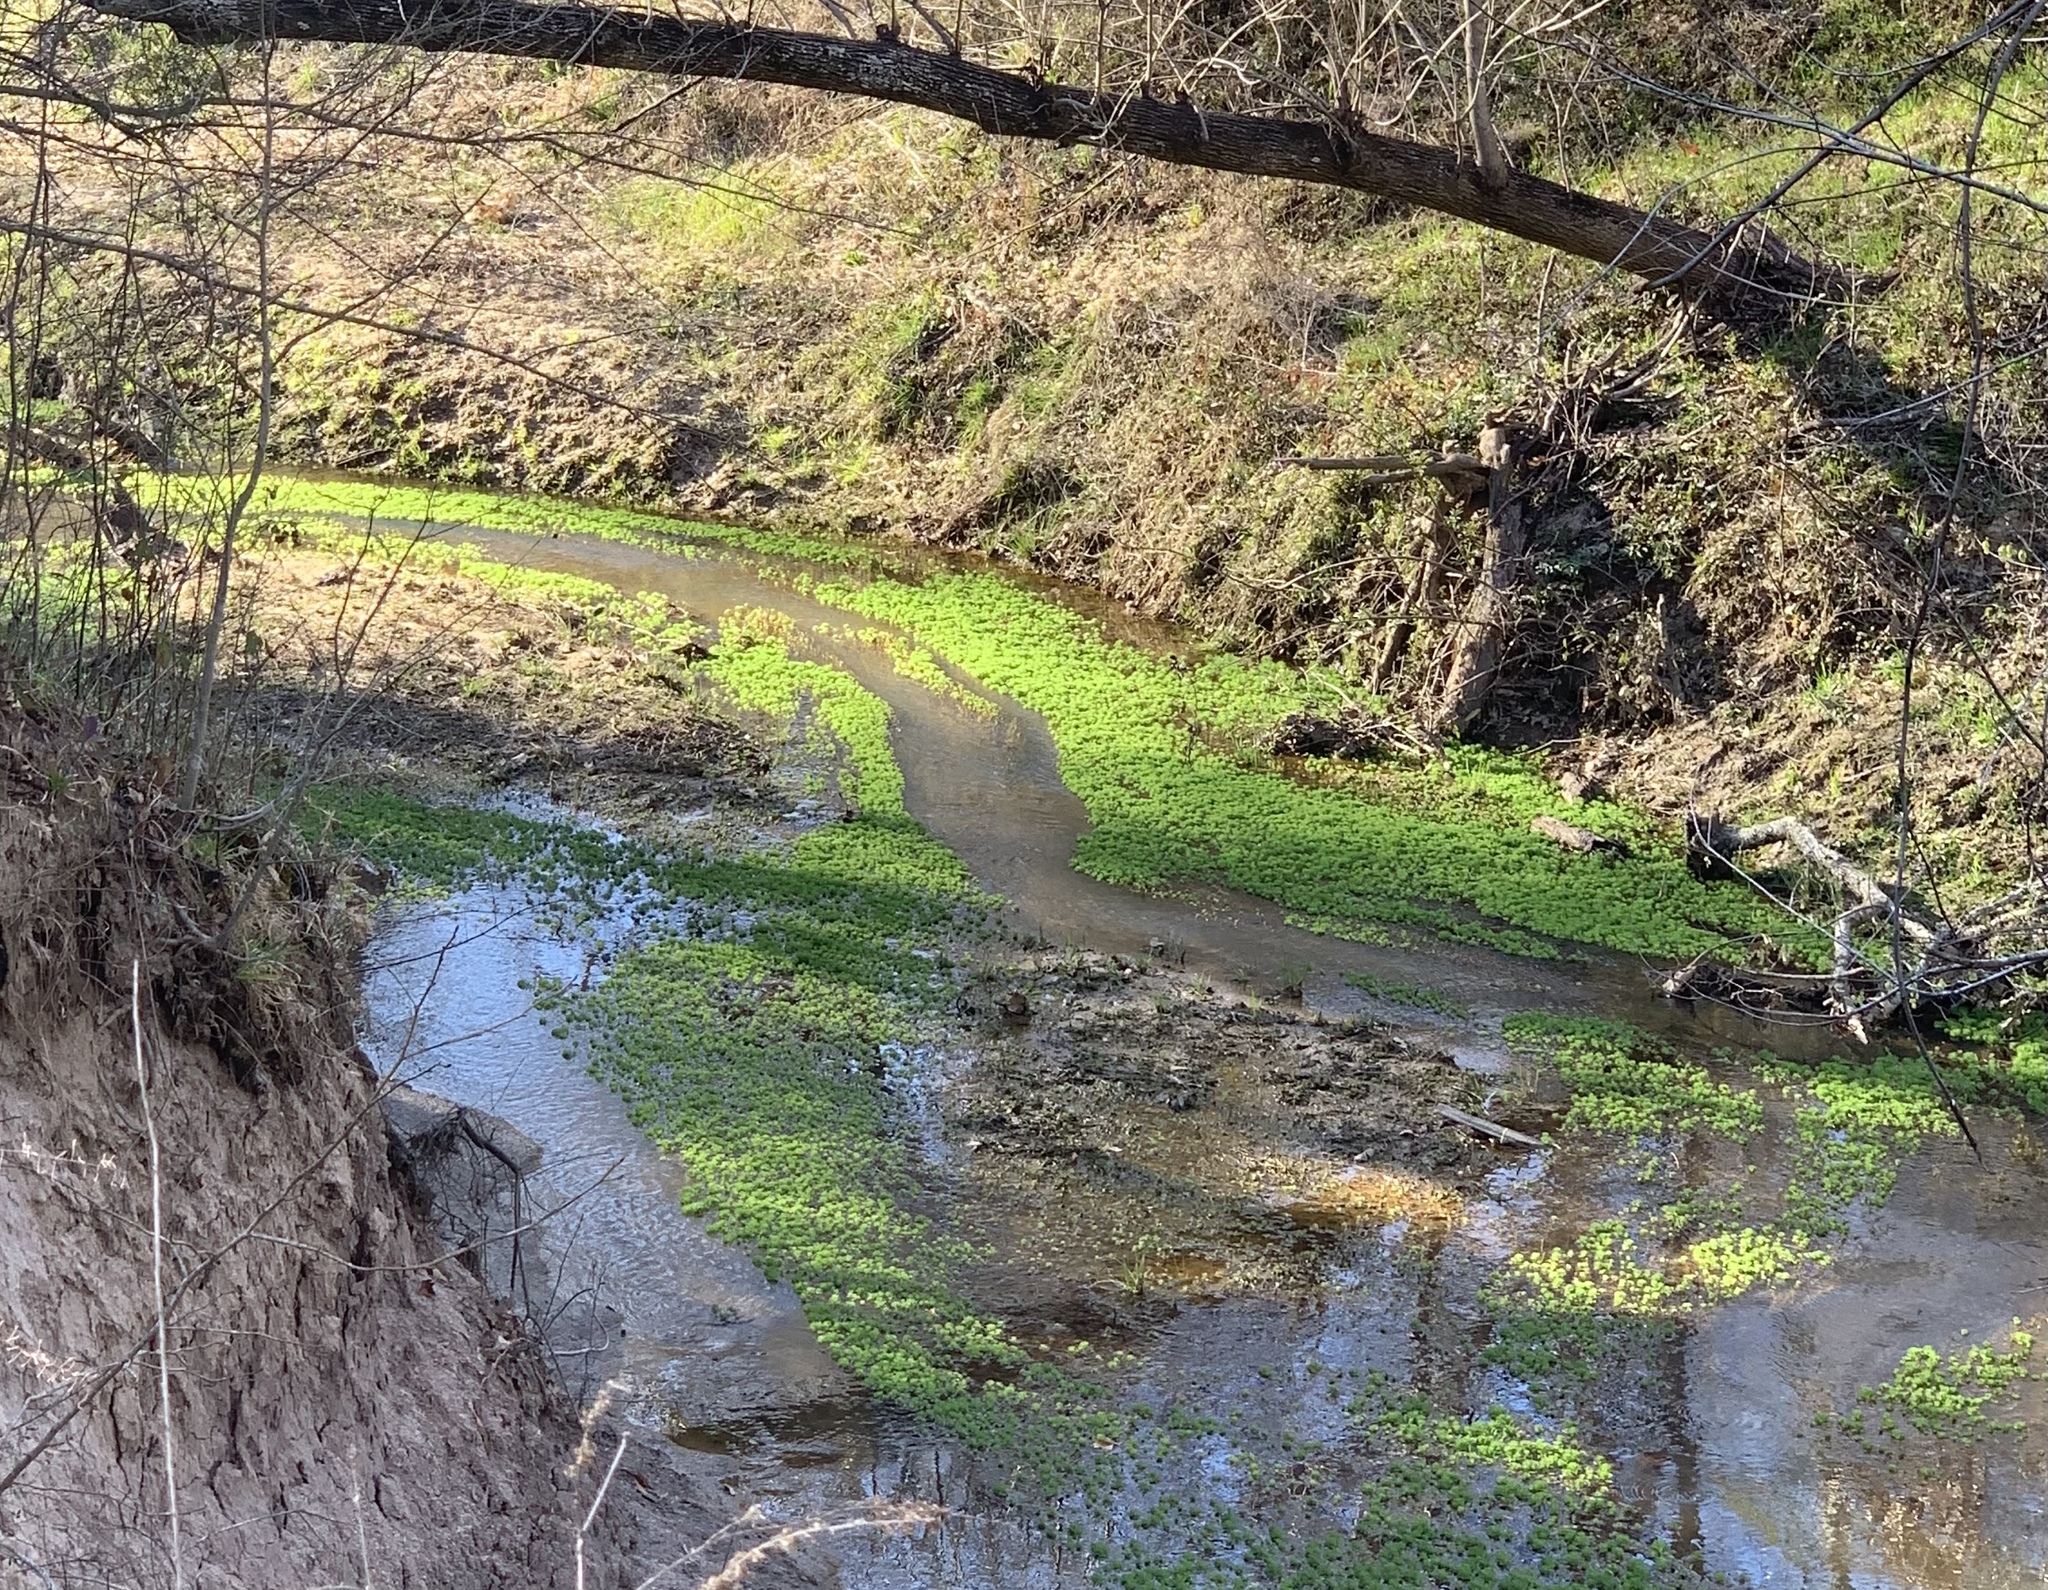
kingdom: Plantae
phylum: Tracheophyta
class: Magnoliopsida
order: Saxifragales
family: Haloragaceae
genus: Myriophyllum
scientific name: Myriophyllum aquaticum
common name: Parrot's feather
